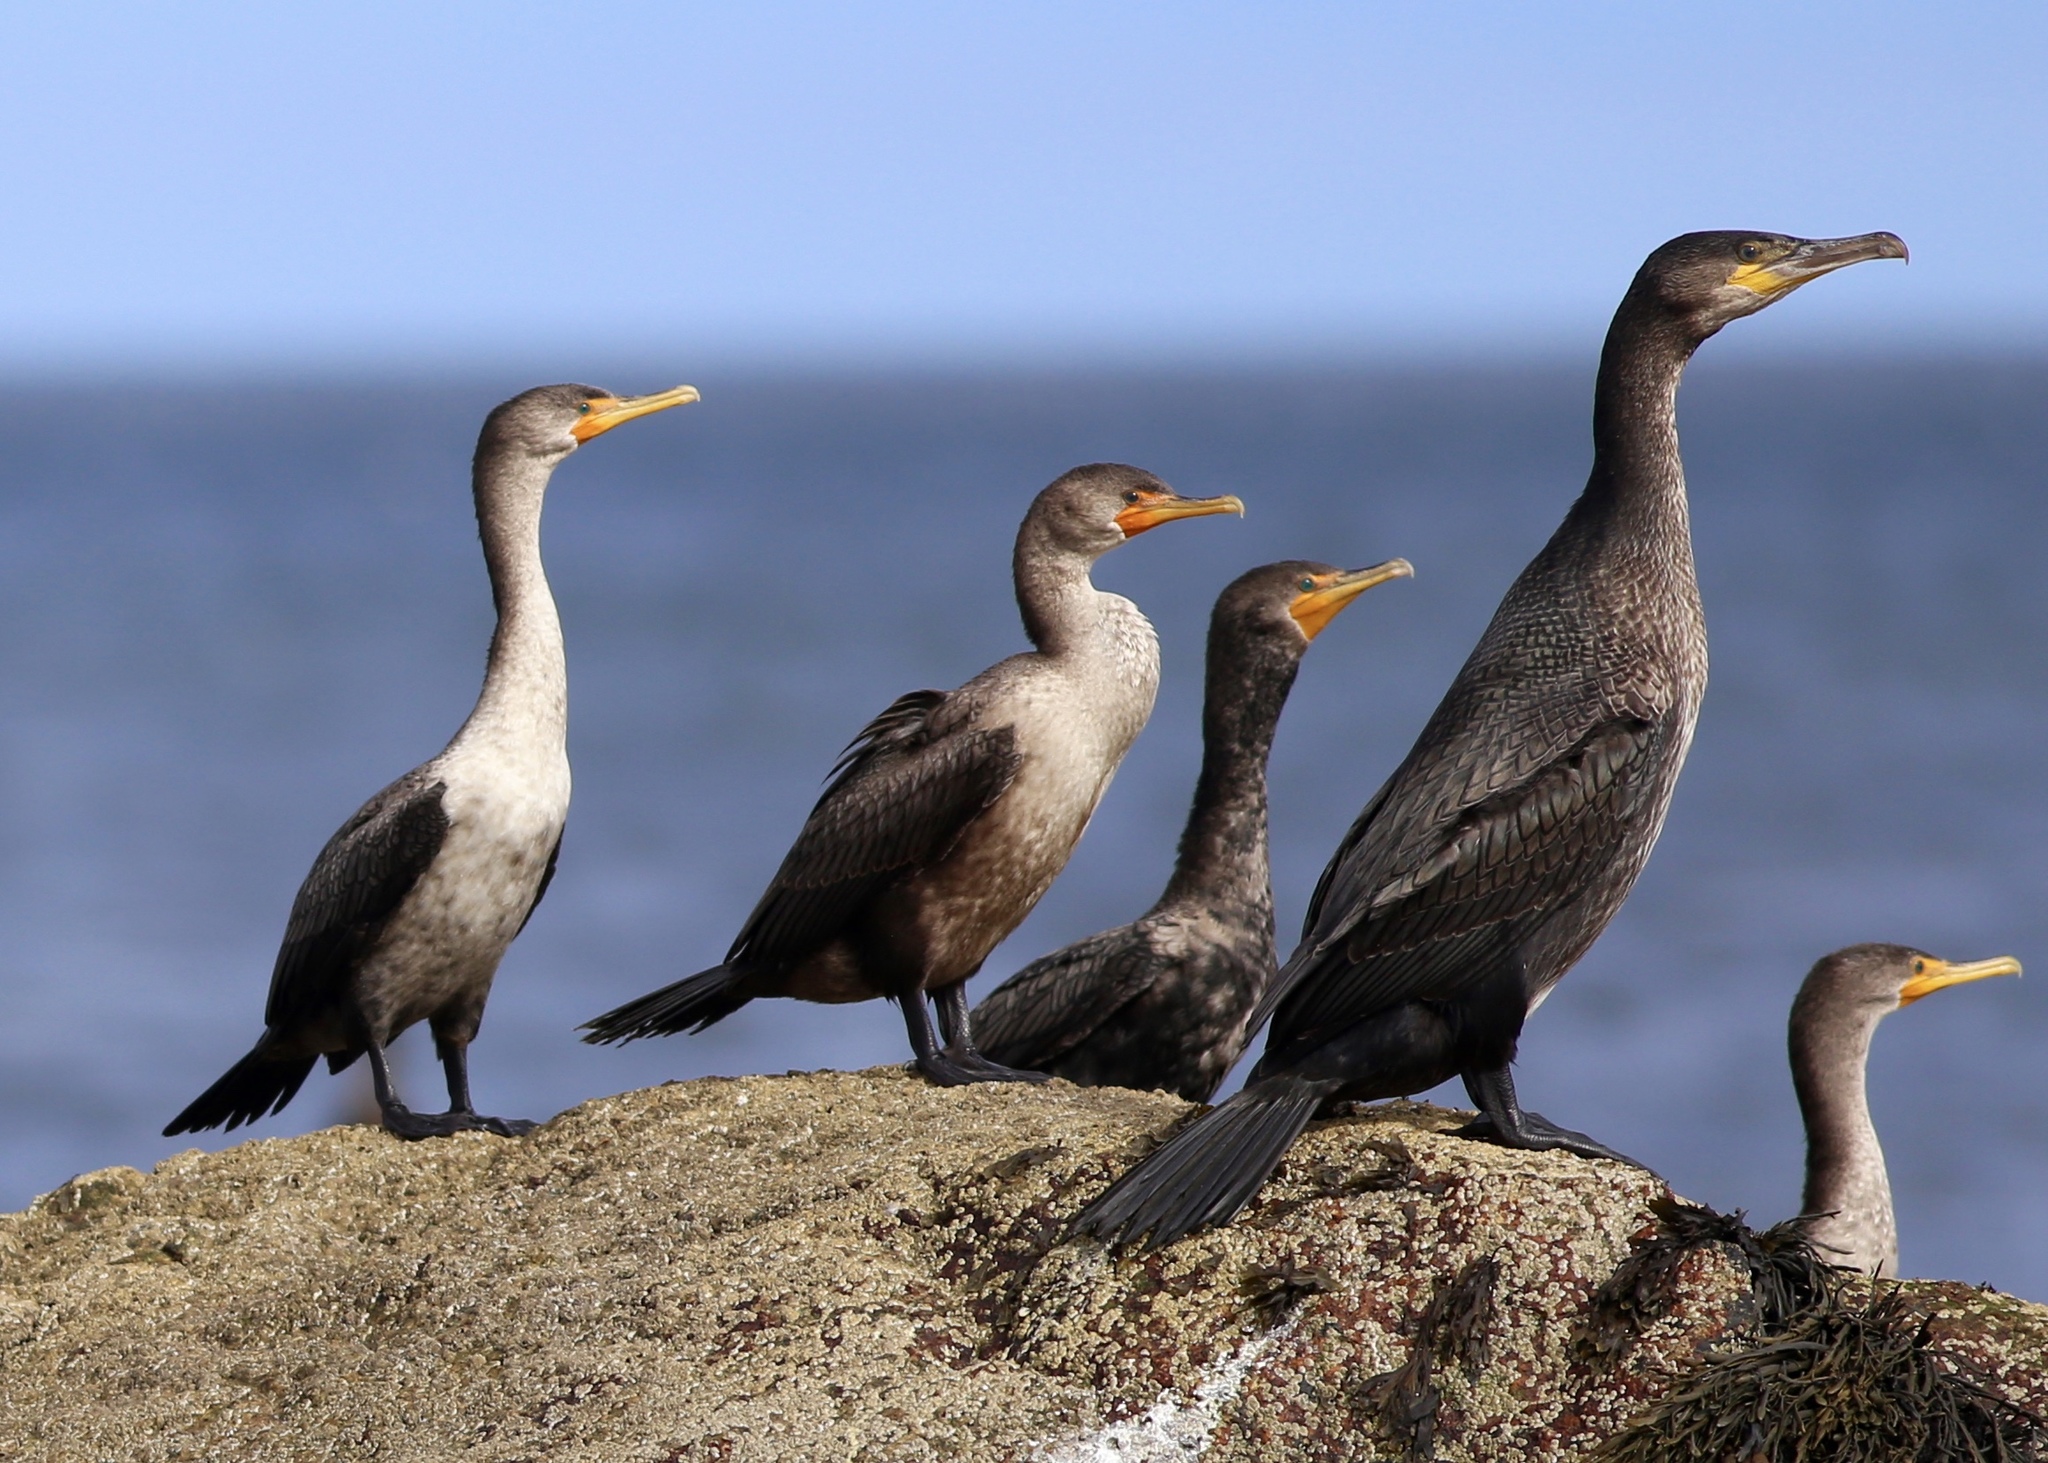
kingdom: Animalia
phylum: Chordata
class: Aves
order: Suliformes
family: Phalacrocoracidae
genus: Phalacrocorax
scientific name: Phalacrocorax auritus
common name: Double-crested cormorant
